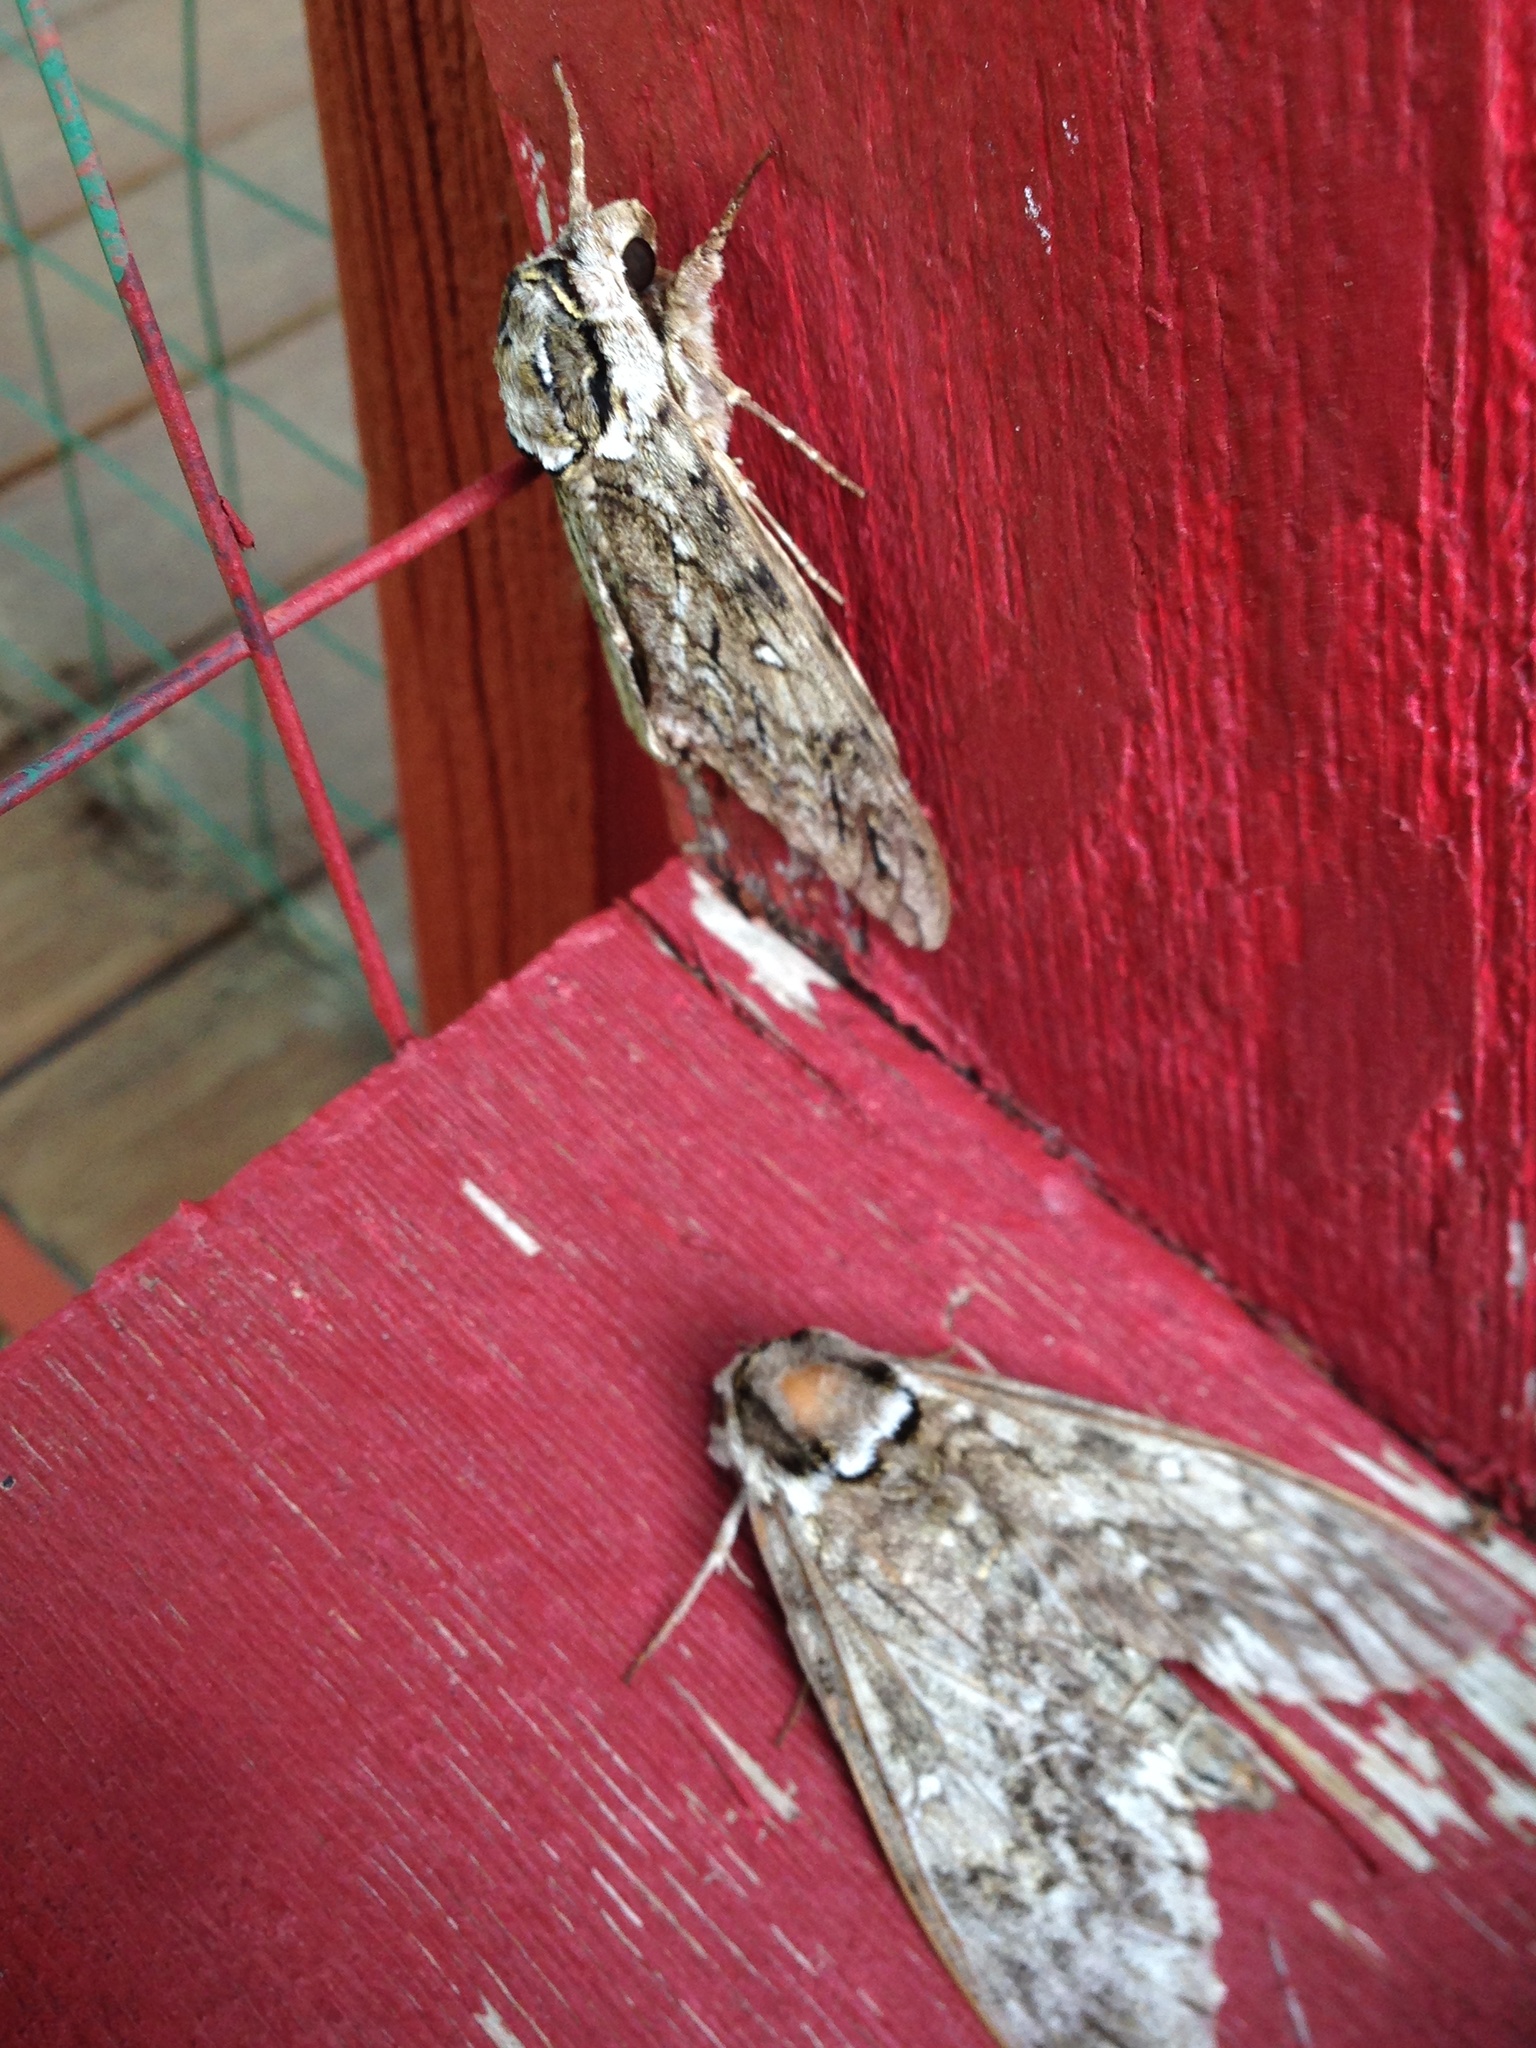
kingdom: Animalia
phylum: Arthropoda
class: Insecta
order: Lepidoptera
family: Sphingidae
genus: Ceratomia
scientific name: Ceratomia undulosa
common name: Waved sphinx
